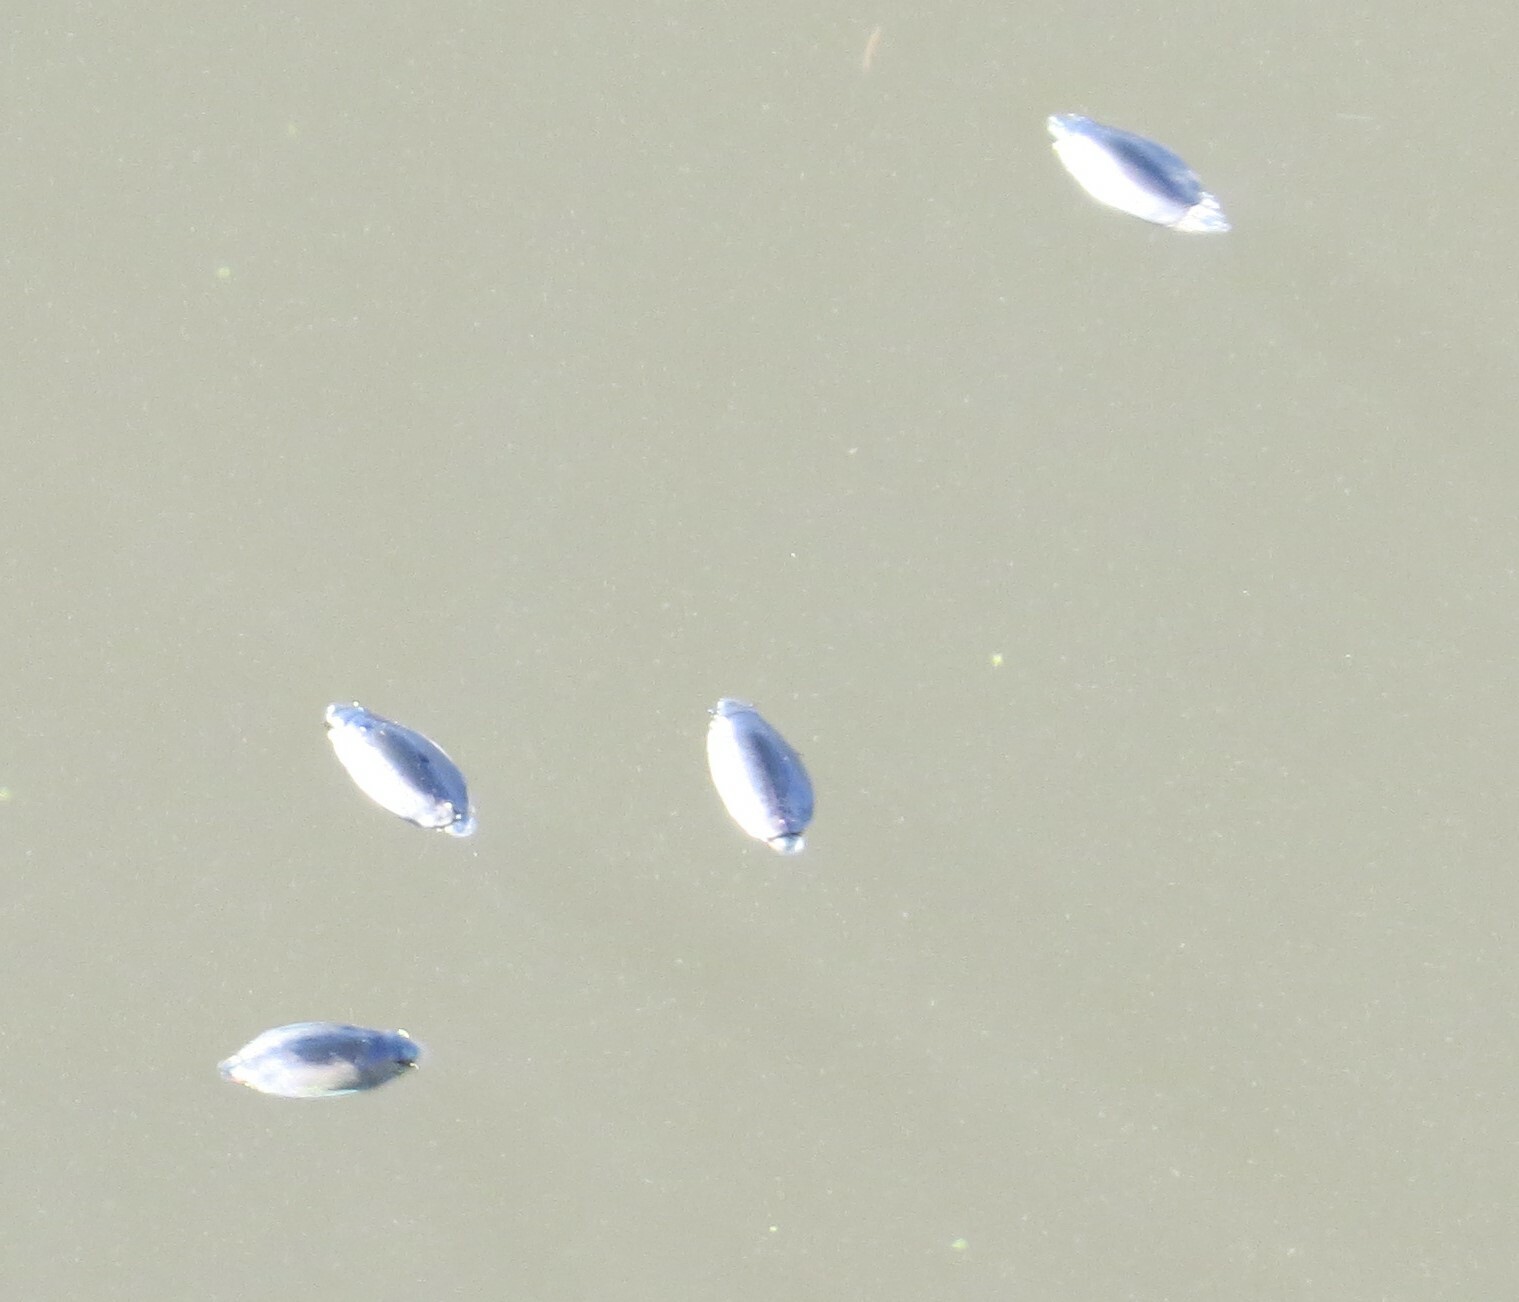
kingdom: Animalia
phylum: Arthropoda
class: Insecta
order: Coleoptera
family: Gyrinidae
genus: Dineutus
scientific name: Dineutus
